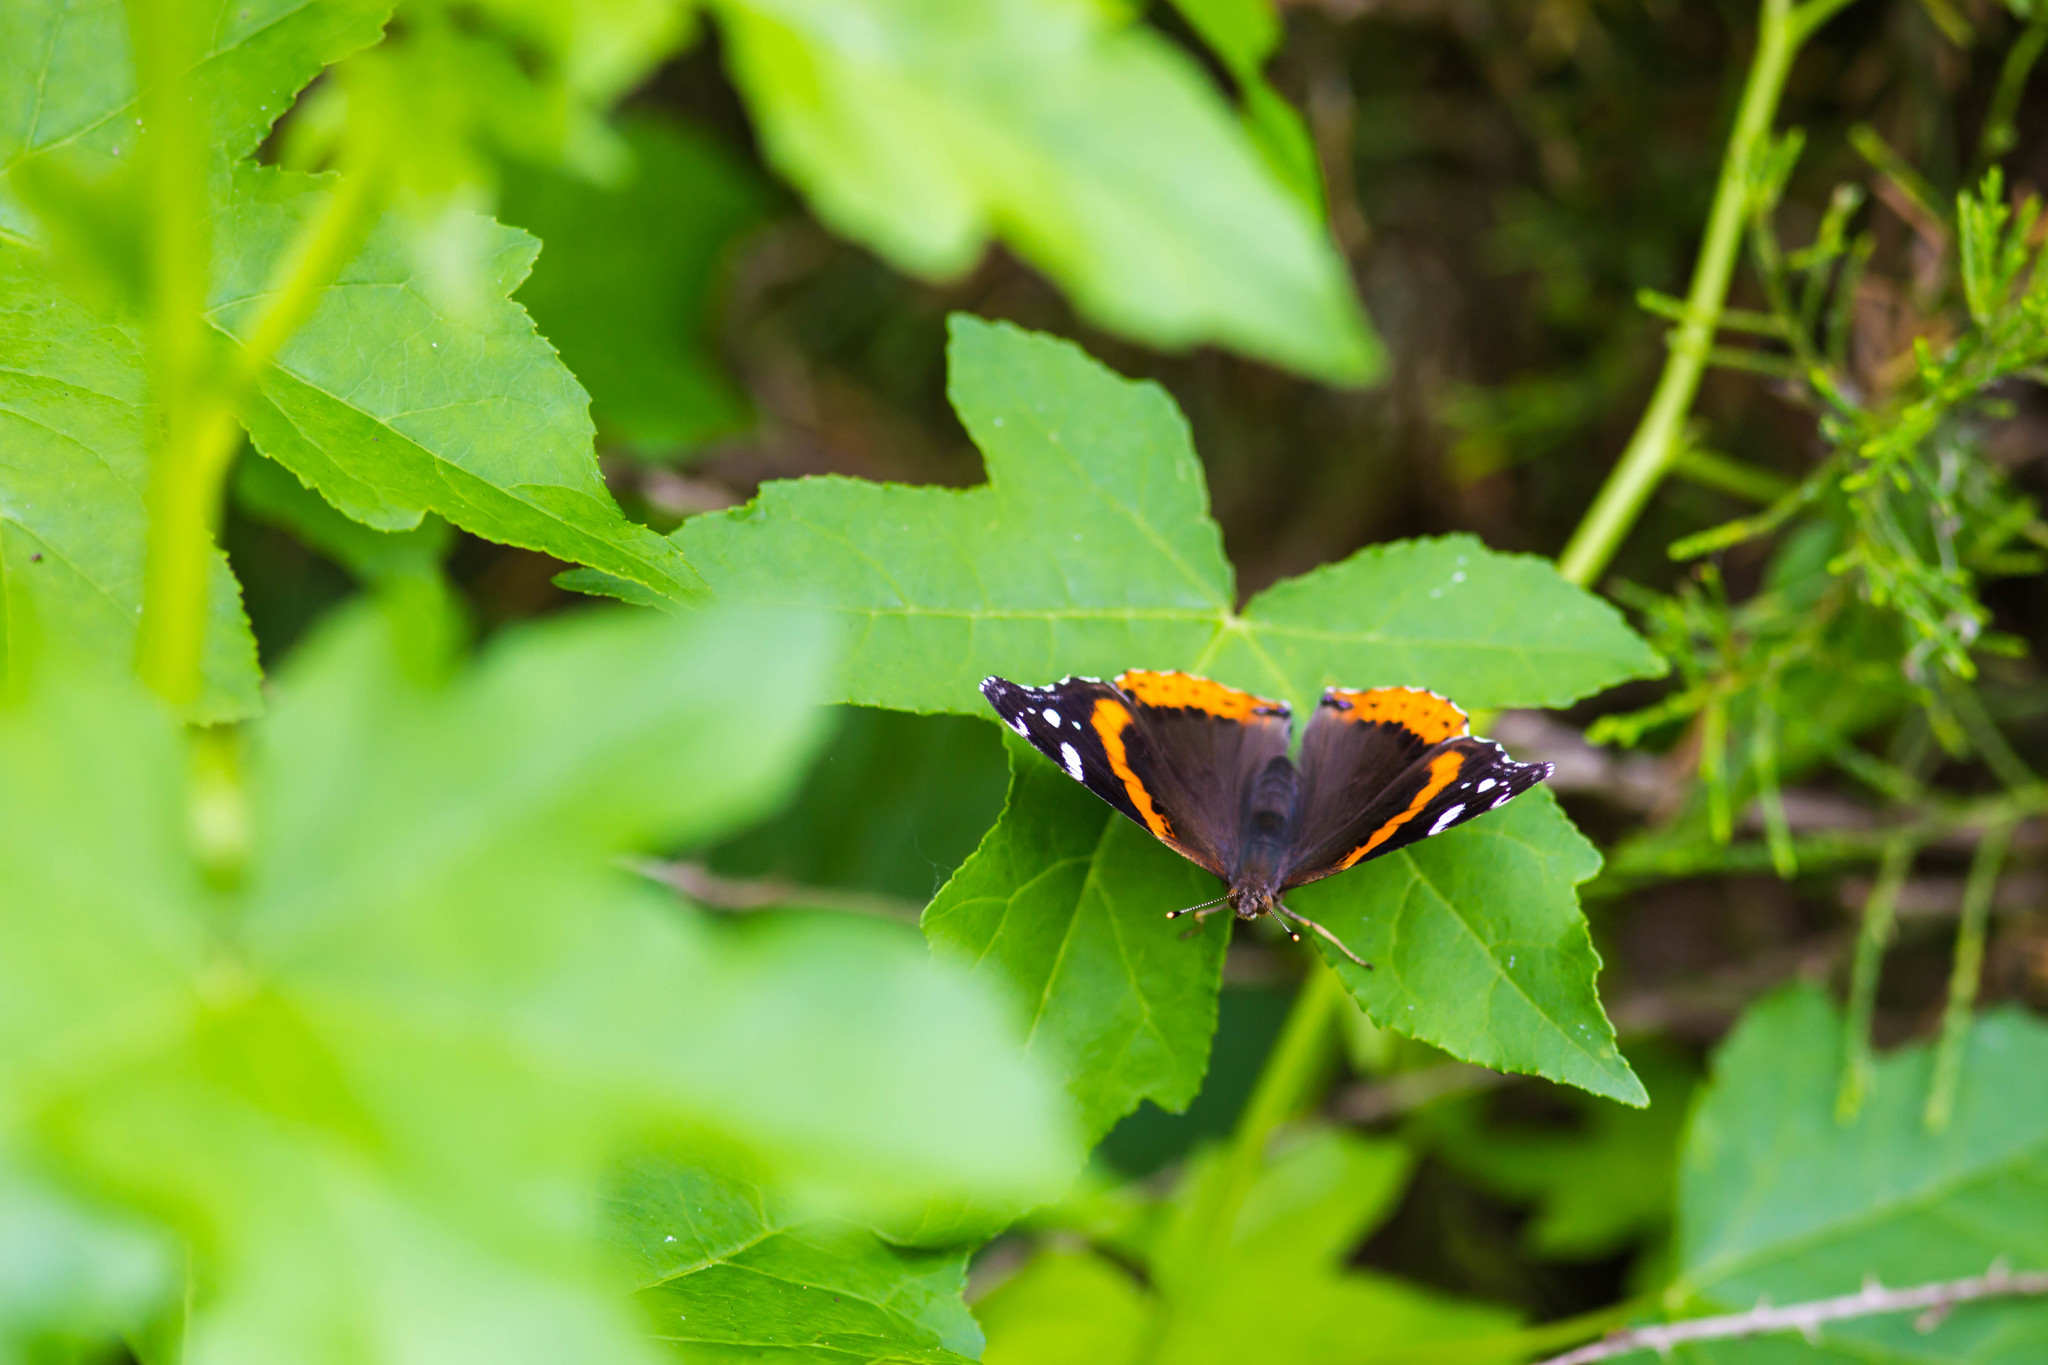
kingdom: Animalia
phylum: Arthropoda
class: Insecta
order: Lepidoptera
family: Nymphalidae
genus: Vanessa
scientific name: Vanessa atalanta
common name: Red admiral
